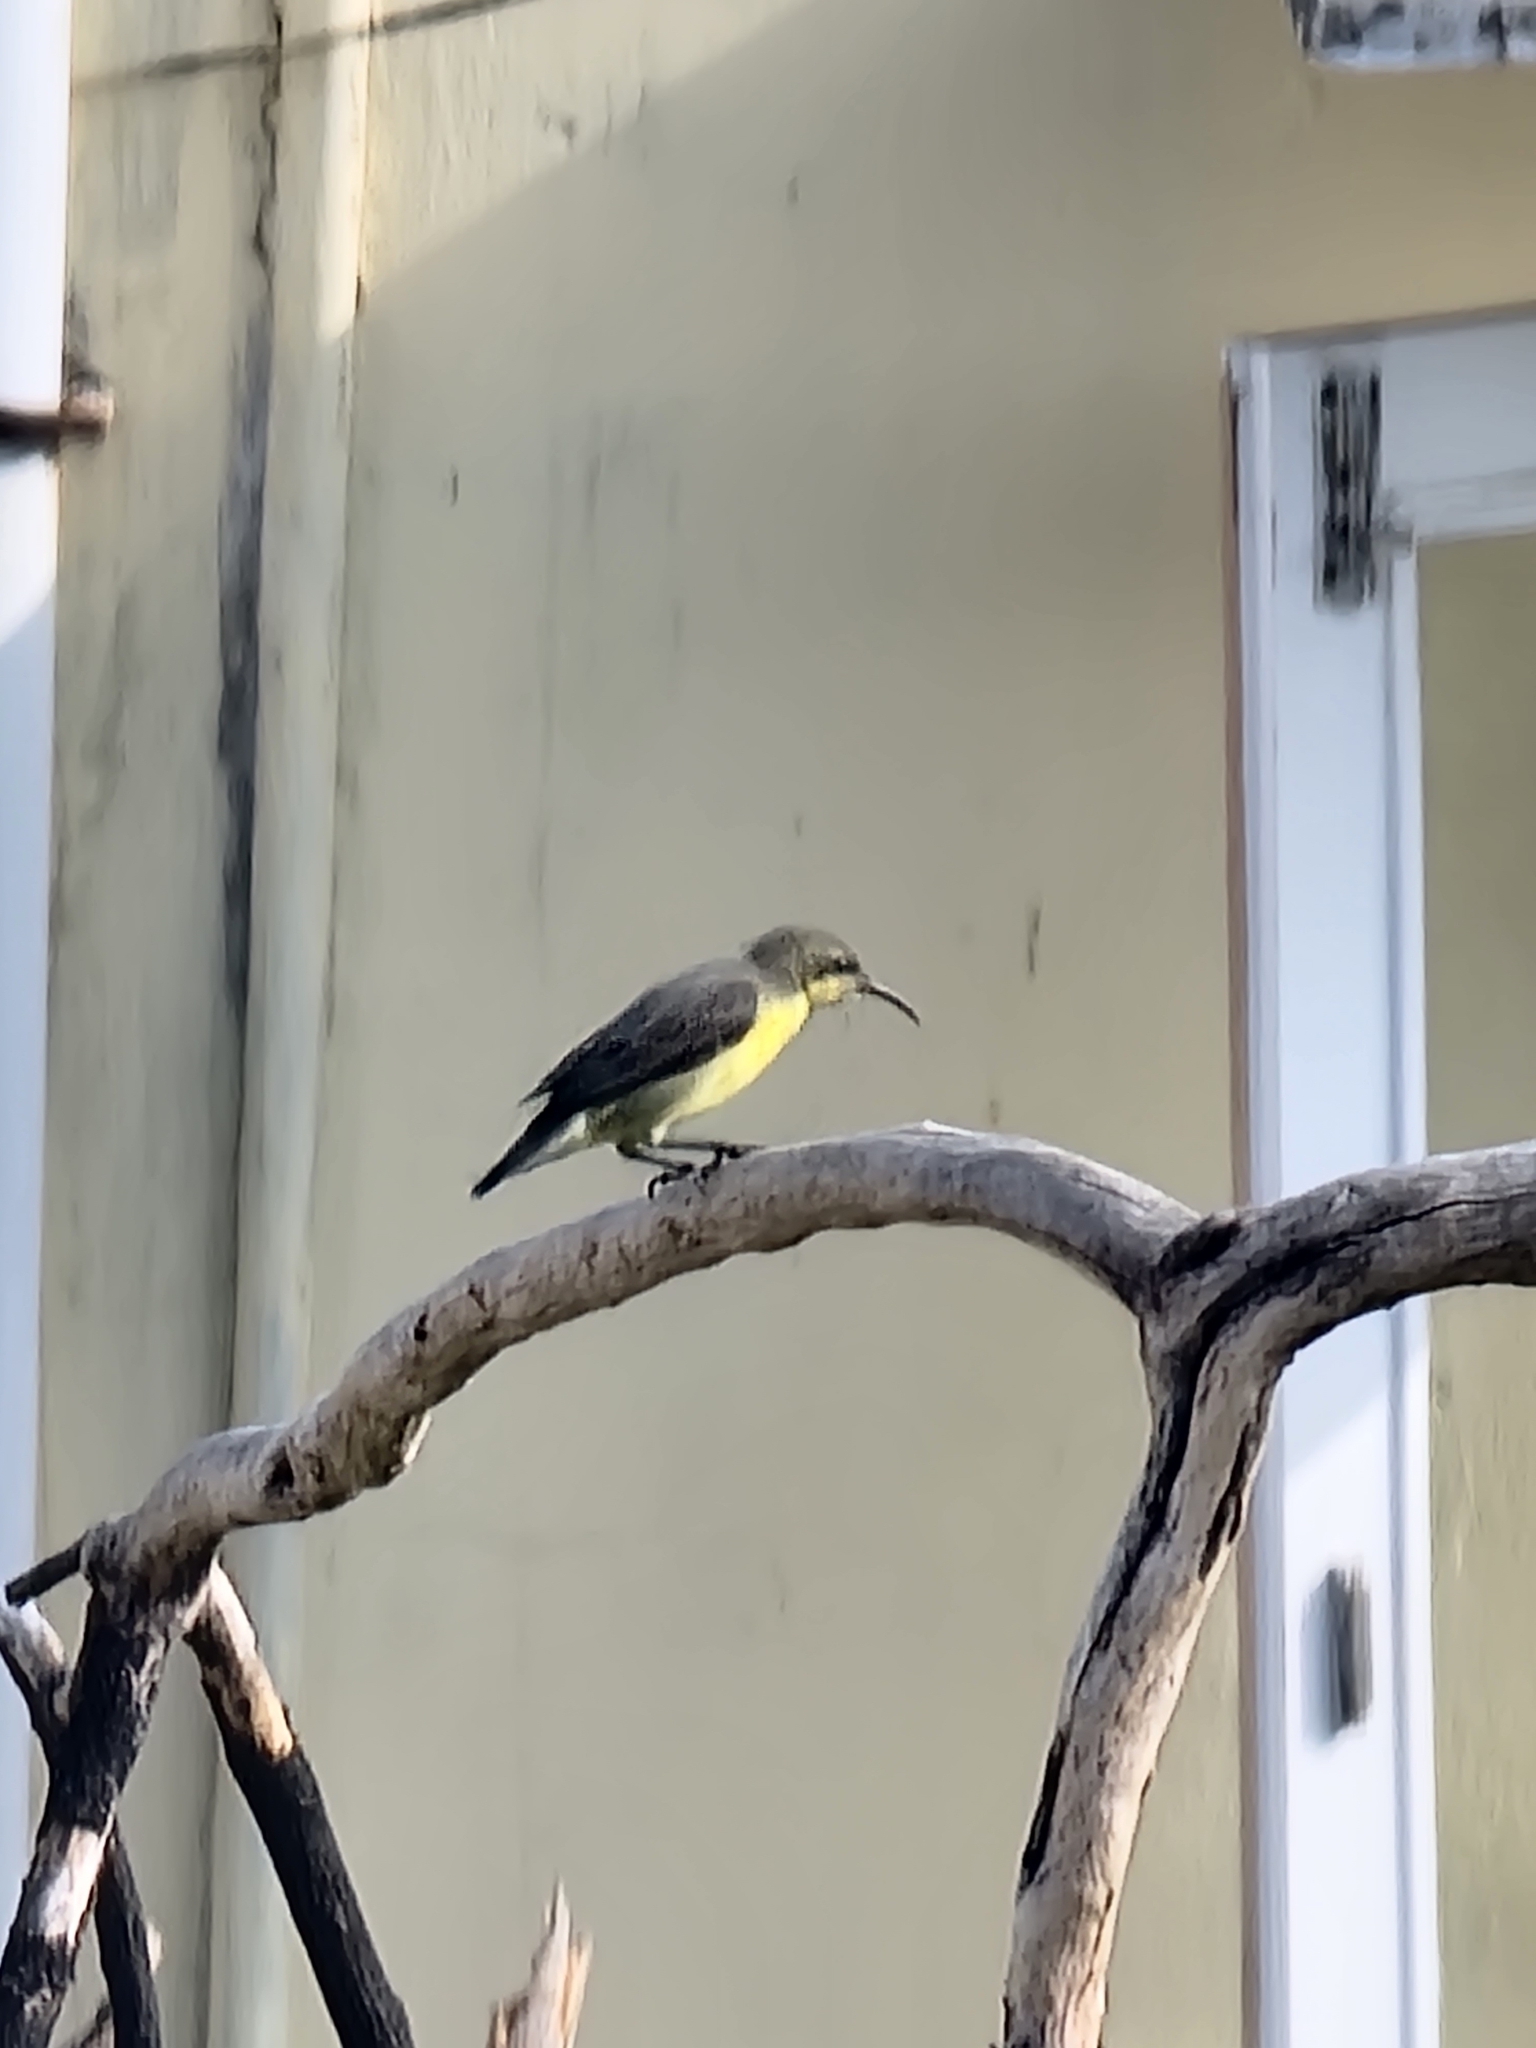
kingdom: Animalia
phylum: Chordata
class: Aves
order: Passeriformes
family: Nectariniidae
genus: Cinnyris
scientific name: Cinnyris asiaticus
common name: Purple sunbird
